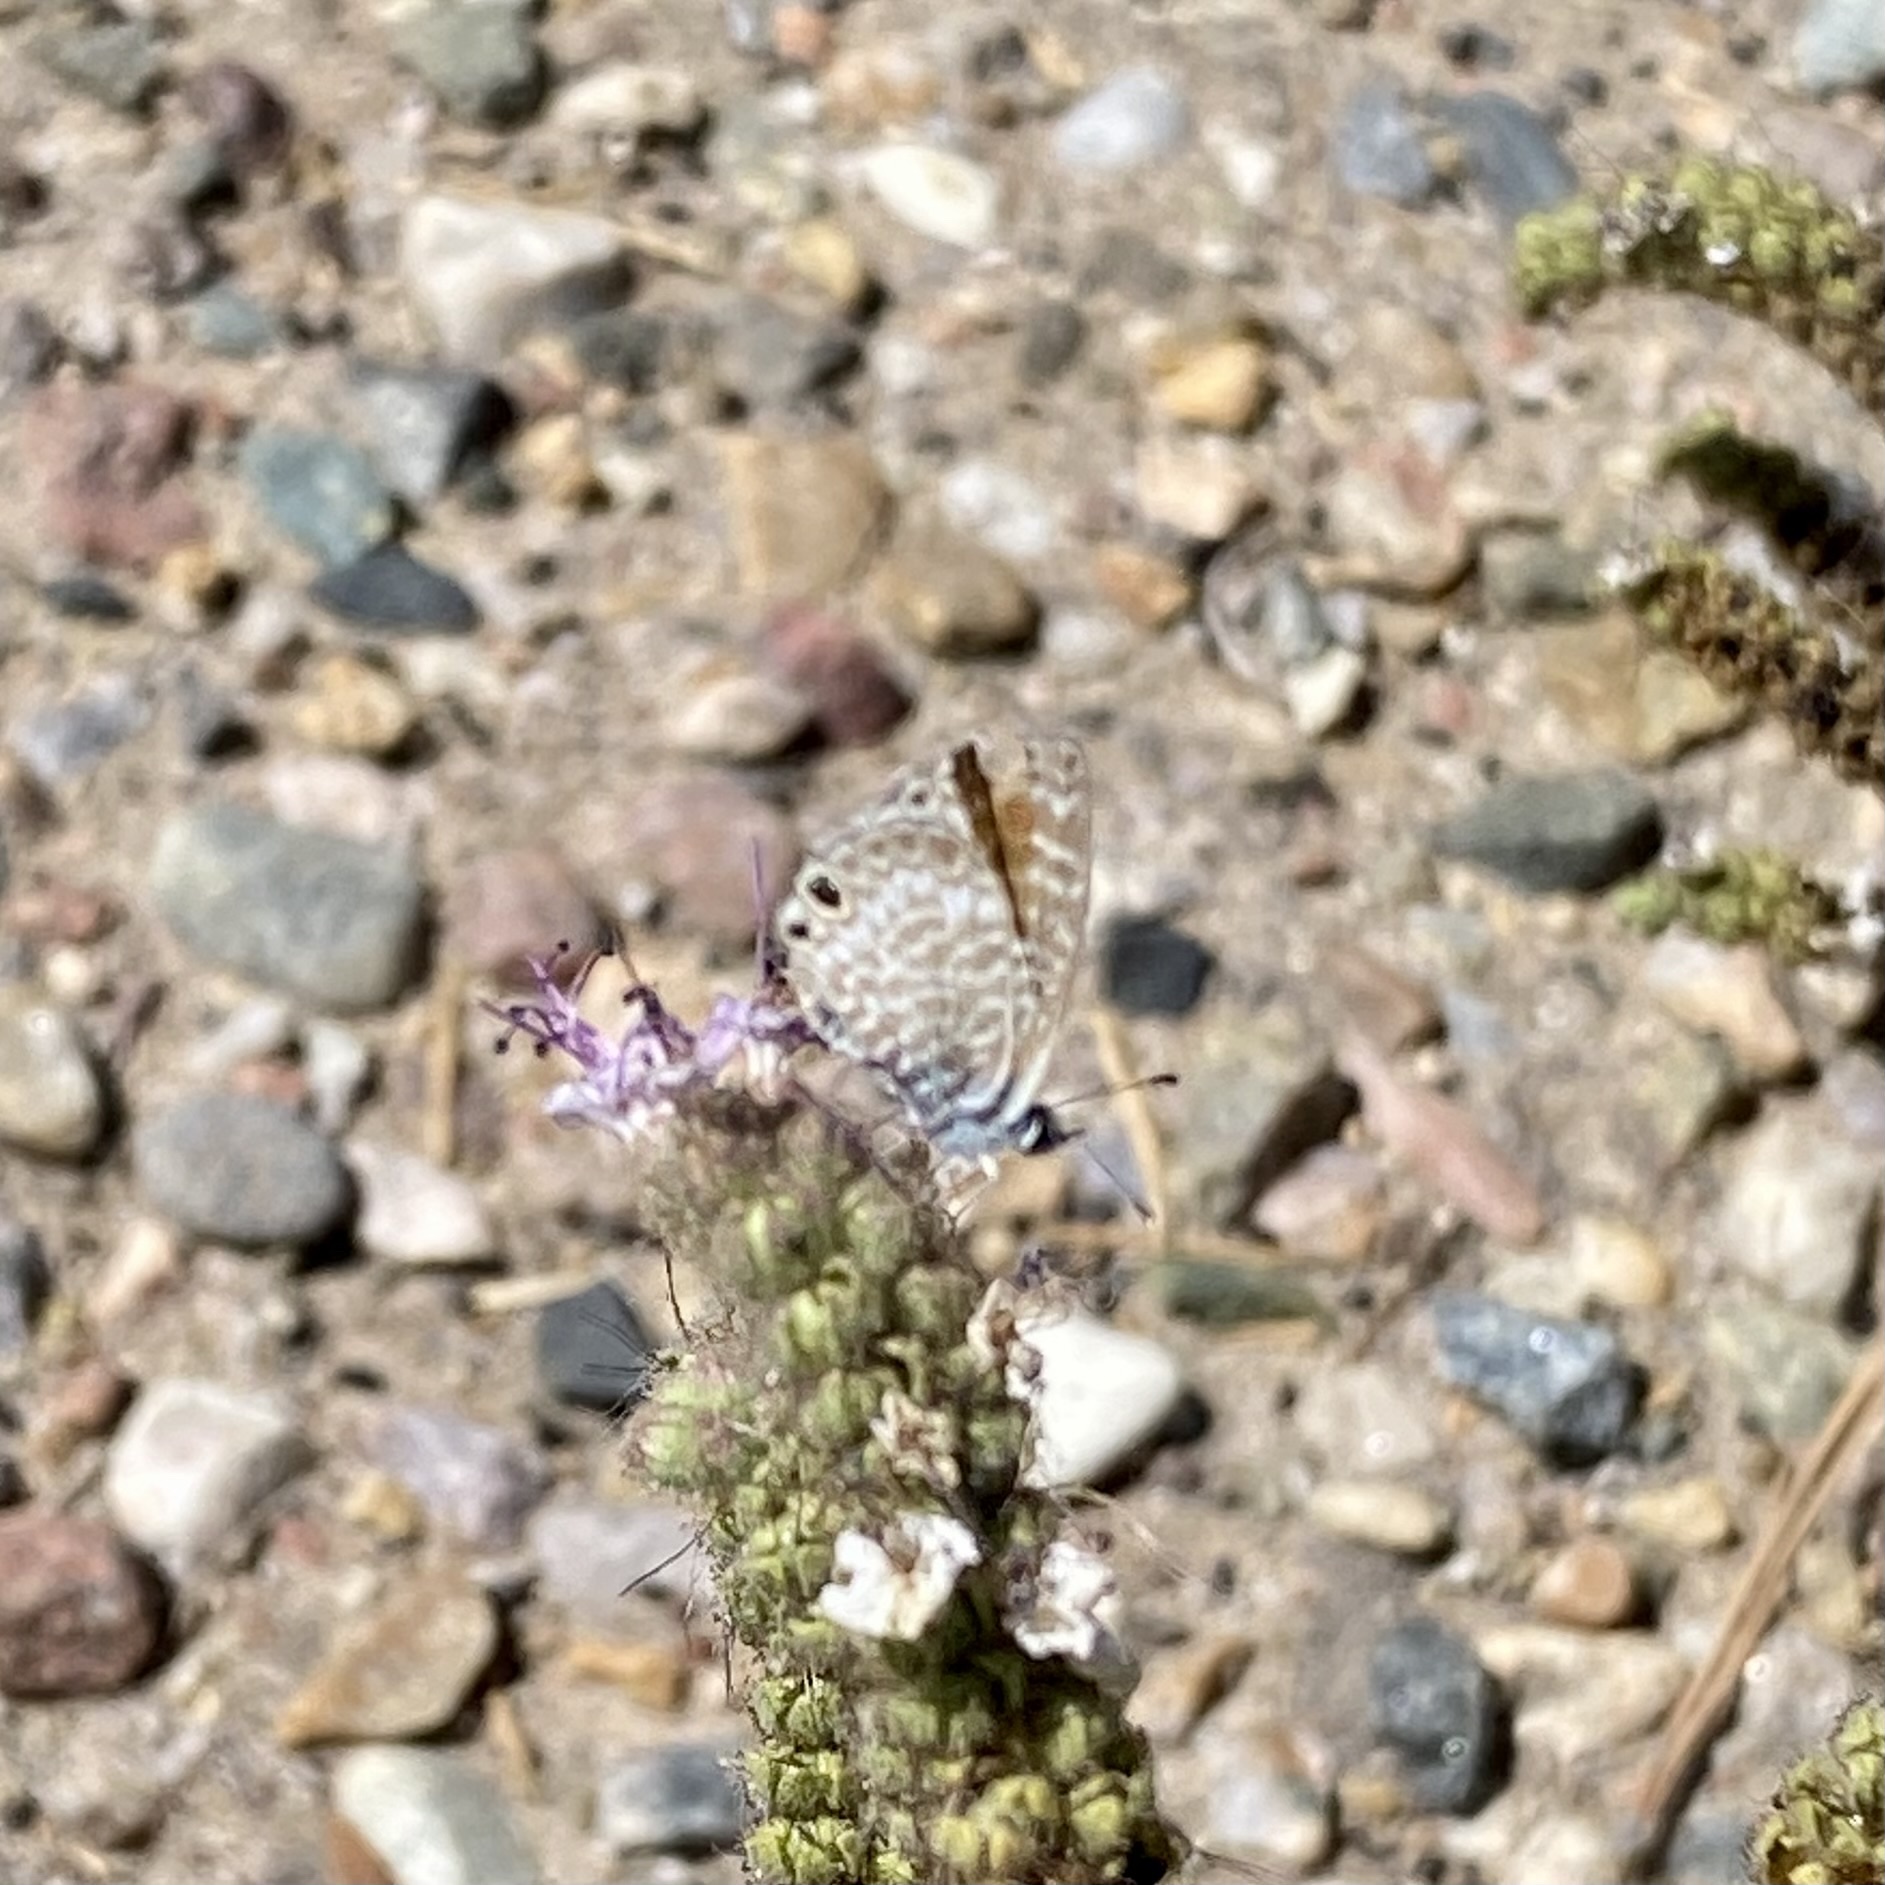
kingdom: Animalia
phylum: Arthropoda
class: Insecta
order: Lepidoptera
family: Lycaenidae
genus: Leptotes
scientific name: Leptotes marina
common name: Marine blue
